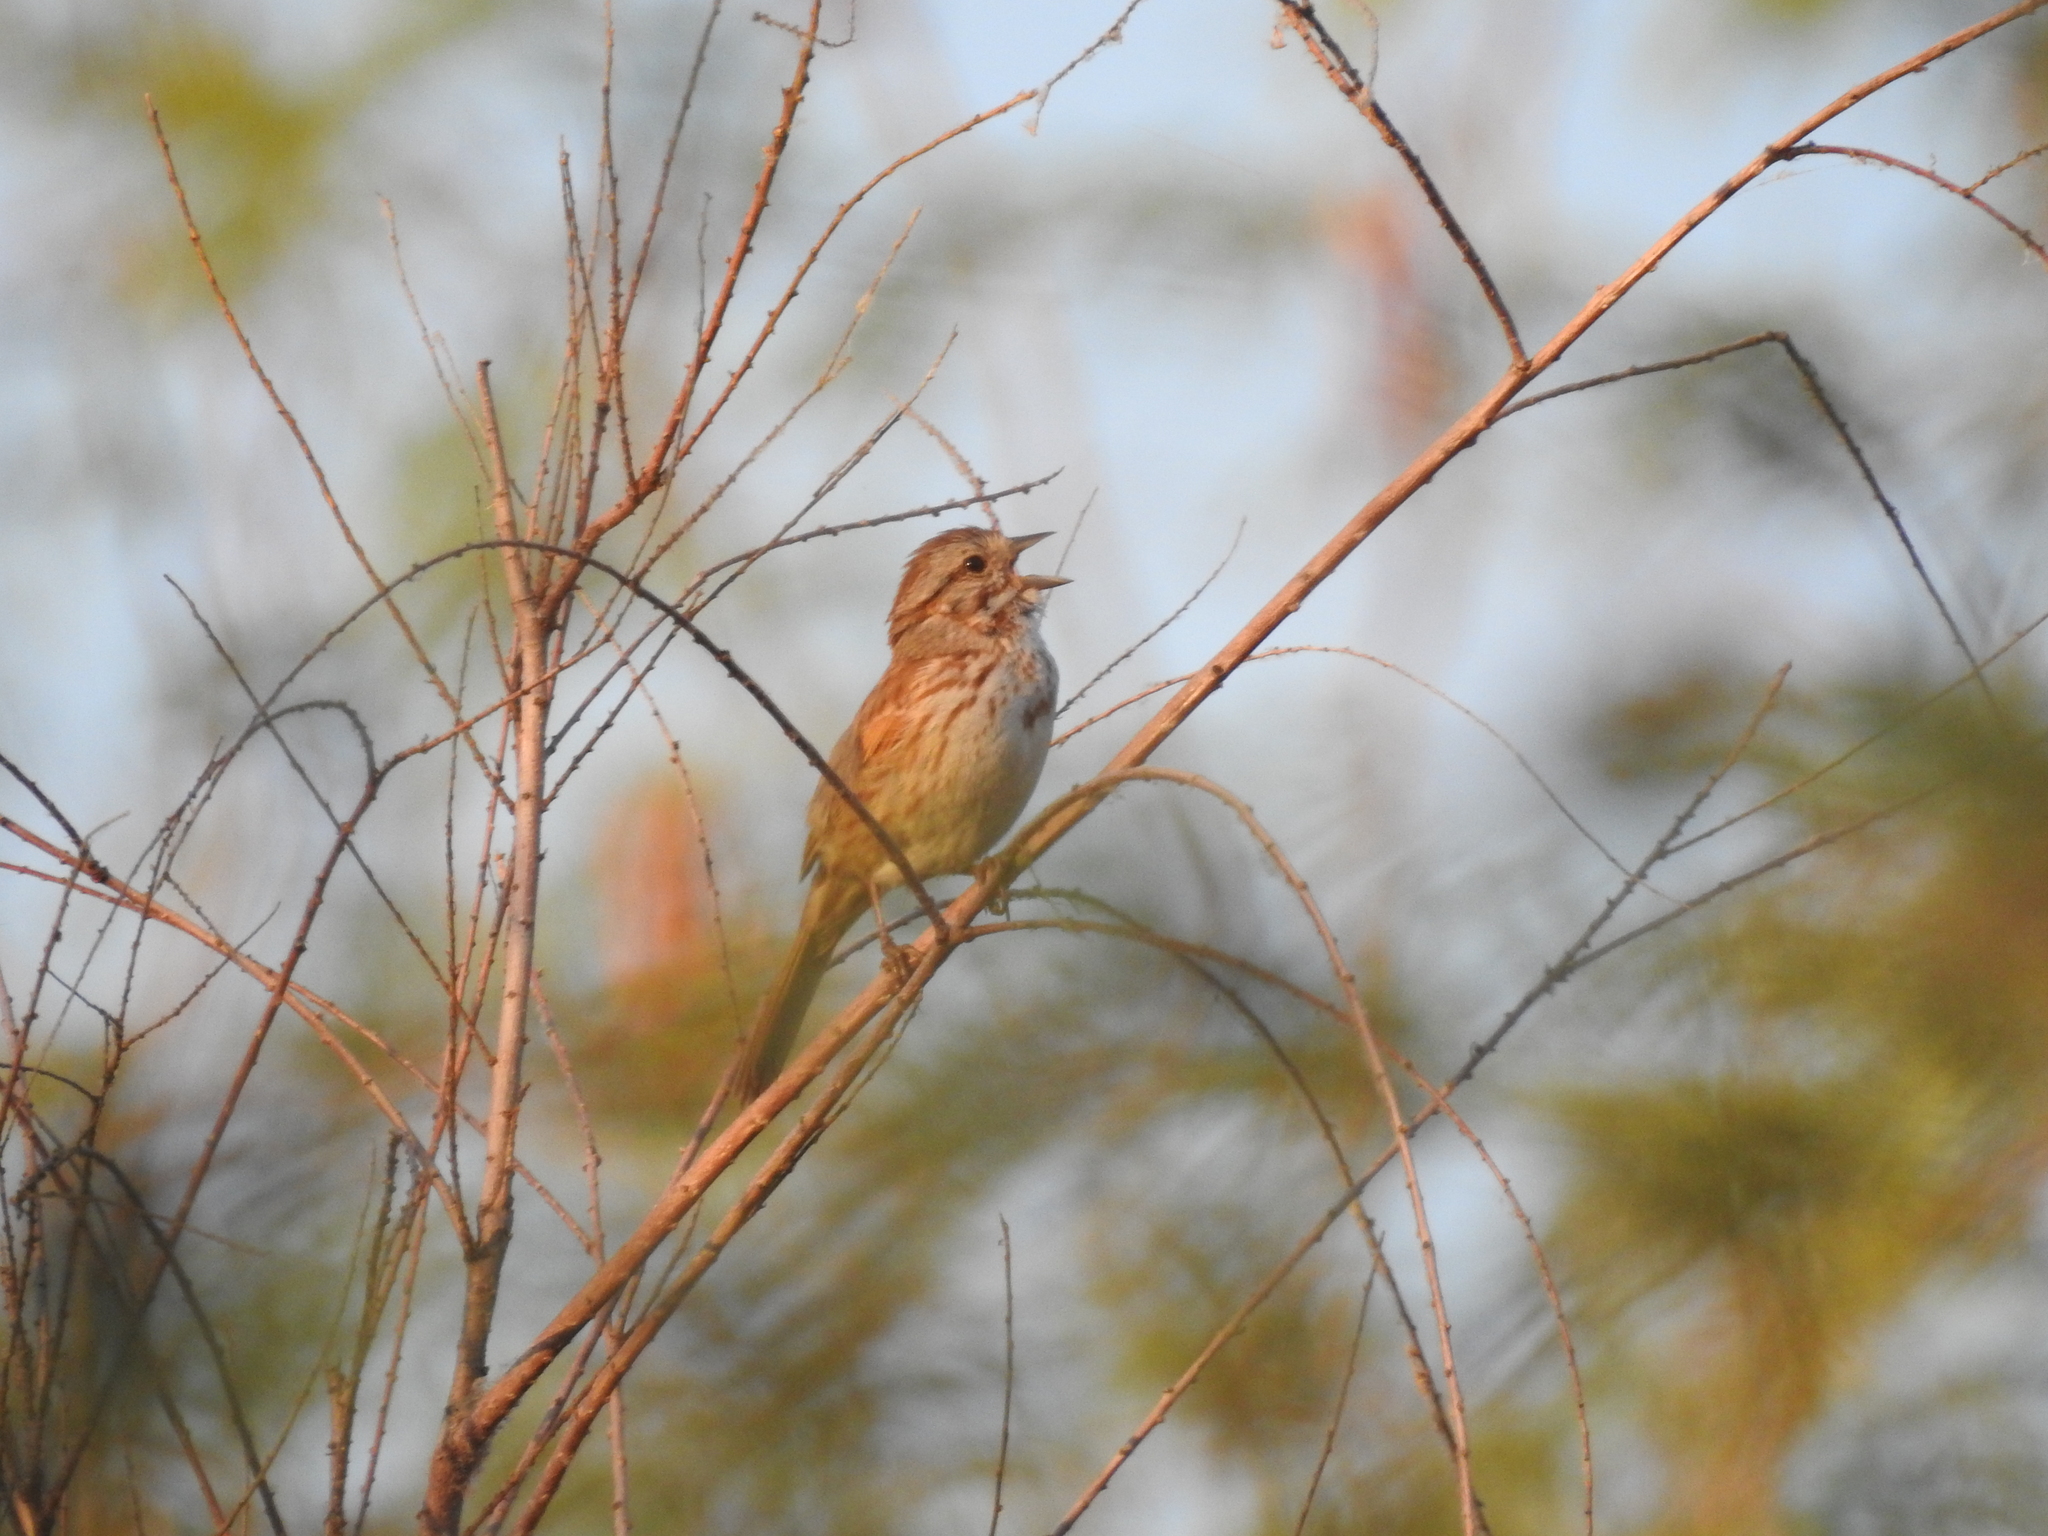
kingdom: Animalia
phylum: Chordata
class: Aves
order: Passeriformes
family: Passerellidae
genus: Melospiza
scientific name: Melospiza melodia
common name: Song sparrow
